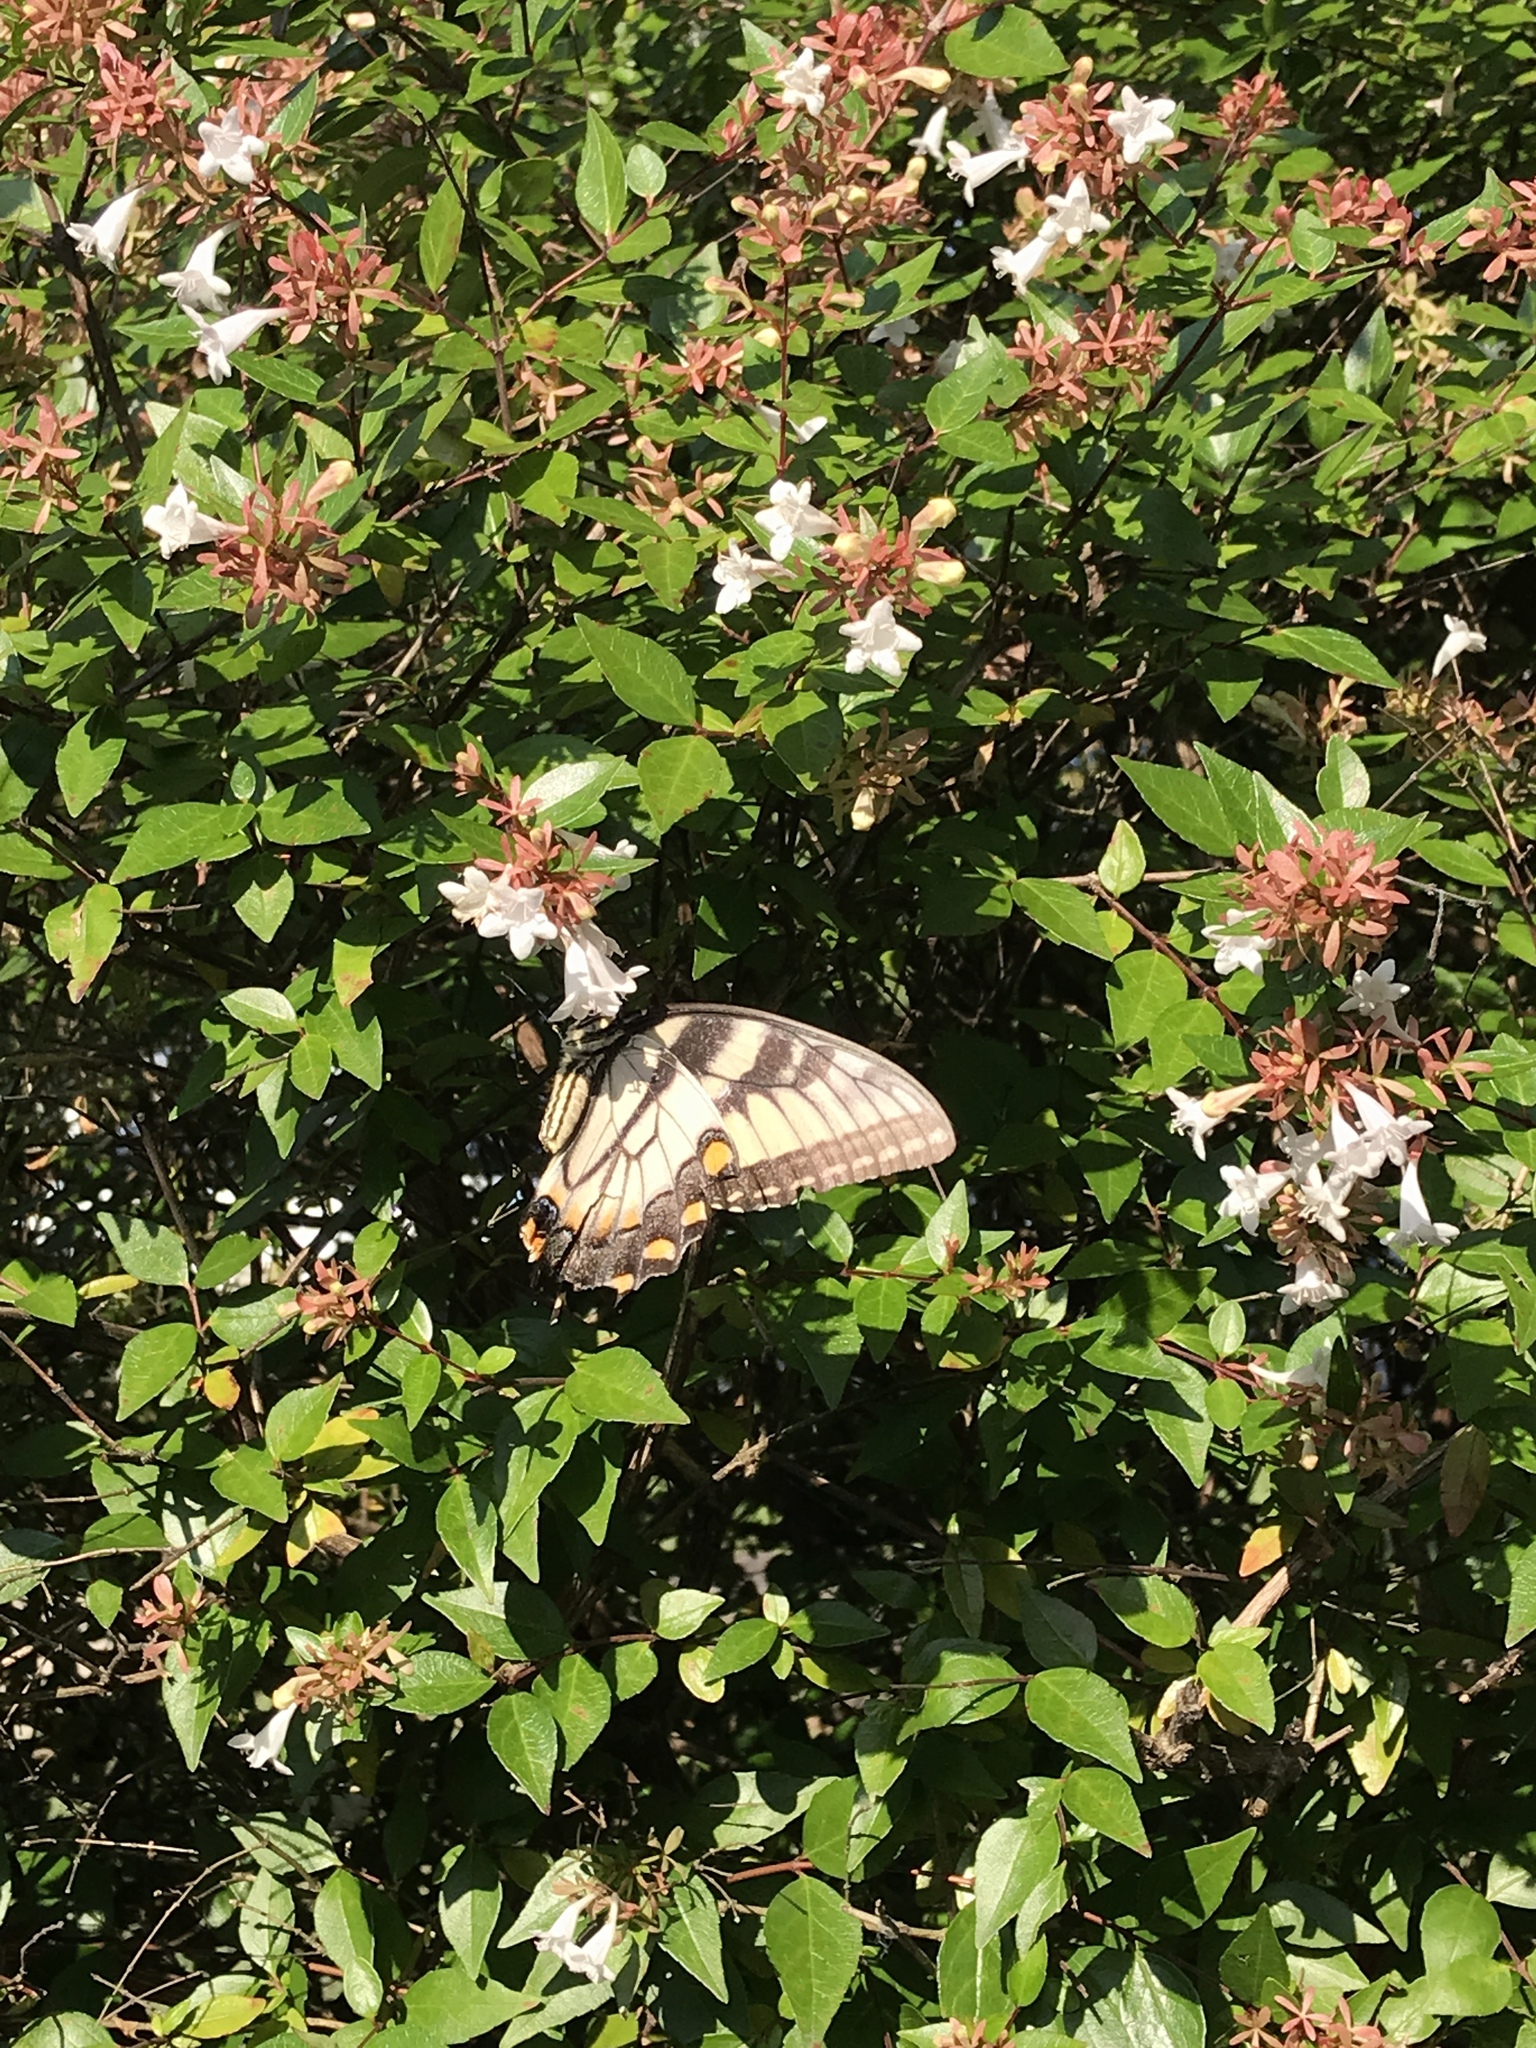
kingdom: Animalia
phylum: Arthropoda
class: Insecta
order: Lepidoptera
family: Papilionidae
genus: Papilio
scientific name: Papilio glaucus
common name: Tiger swallowtail
